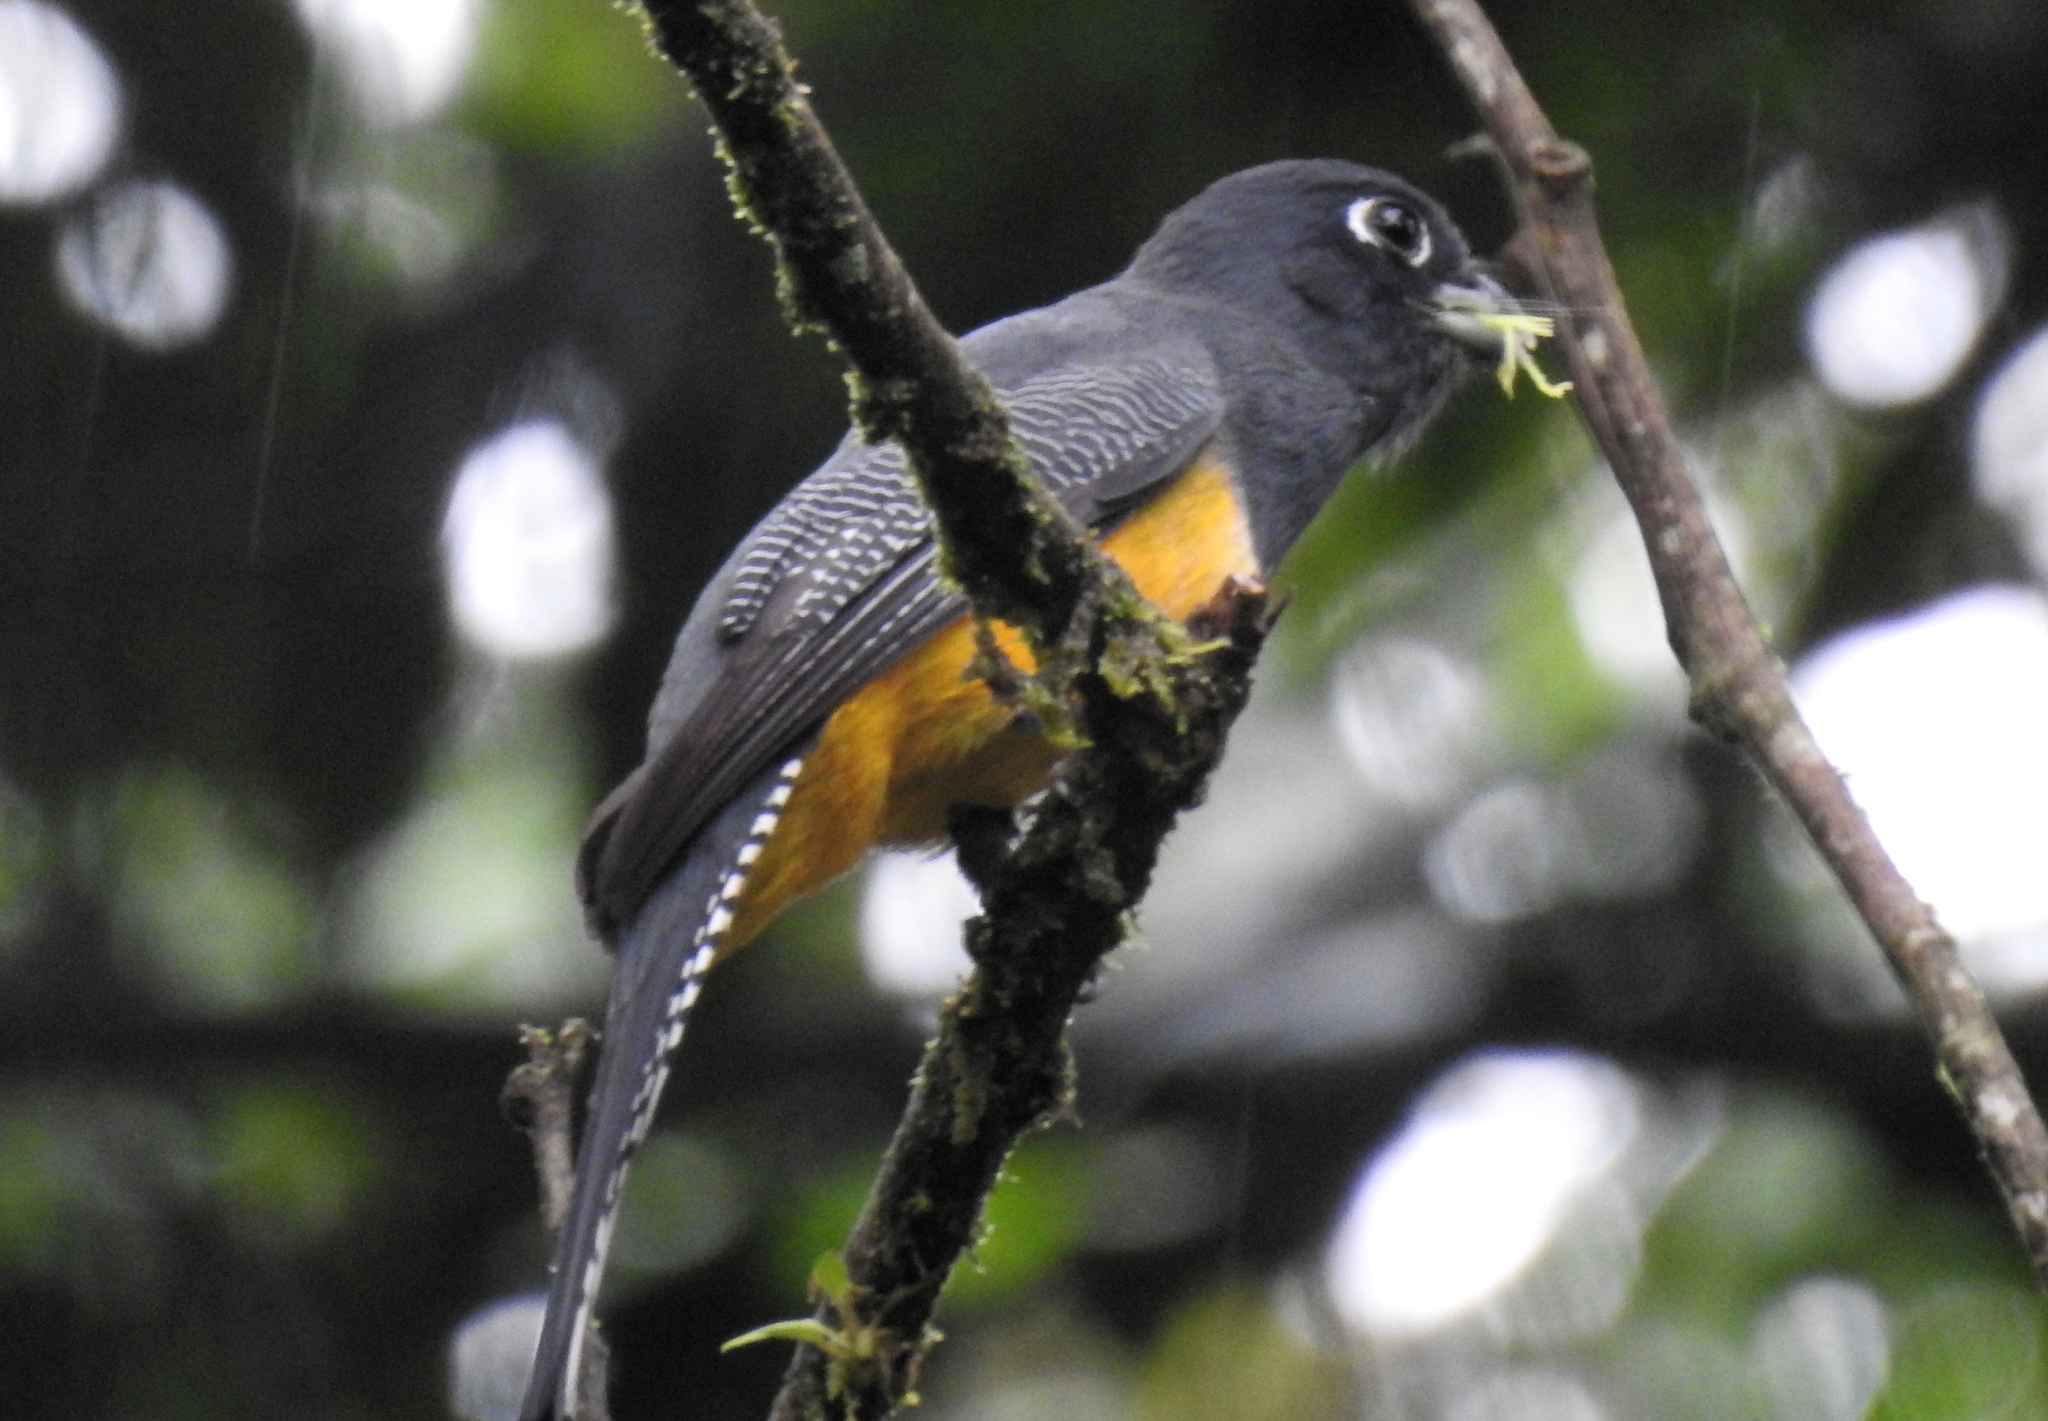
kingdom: Animalia
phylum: Chordata
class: Aves
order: Trogoniformes
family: Trogonidae
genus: Trogon
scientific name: Trogon caligatus
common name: Gartered trogon
